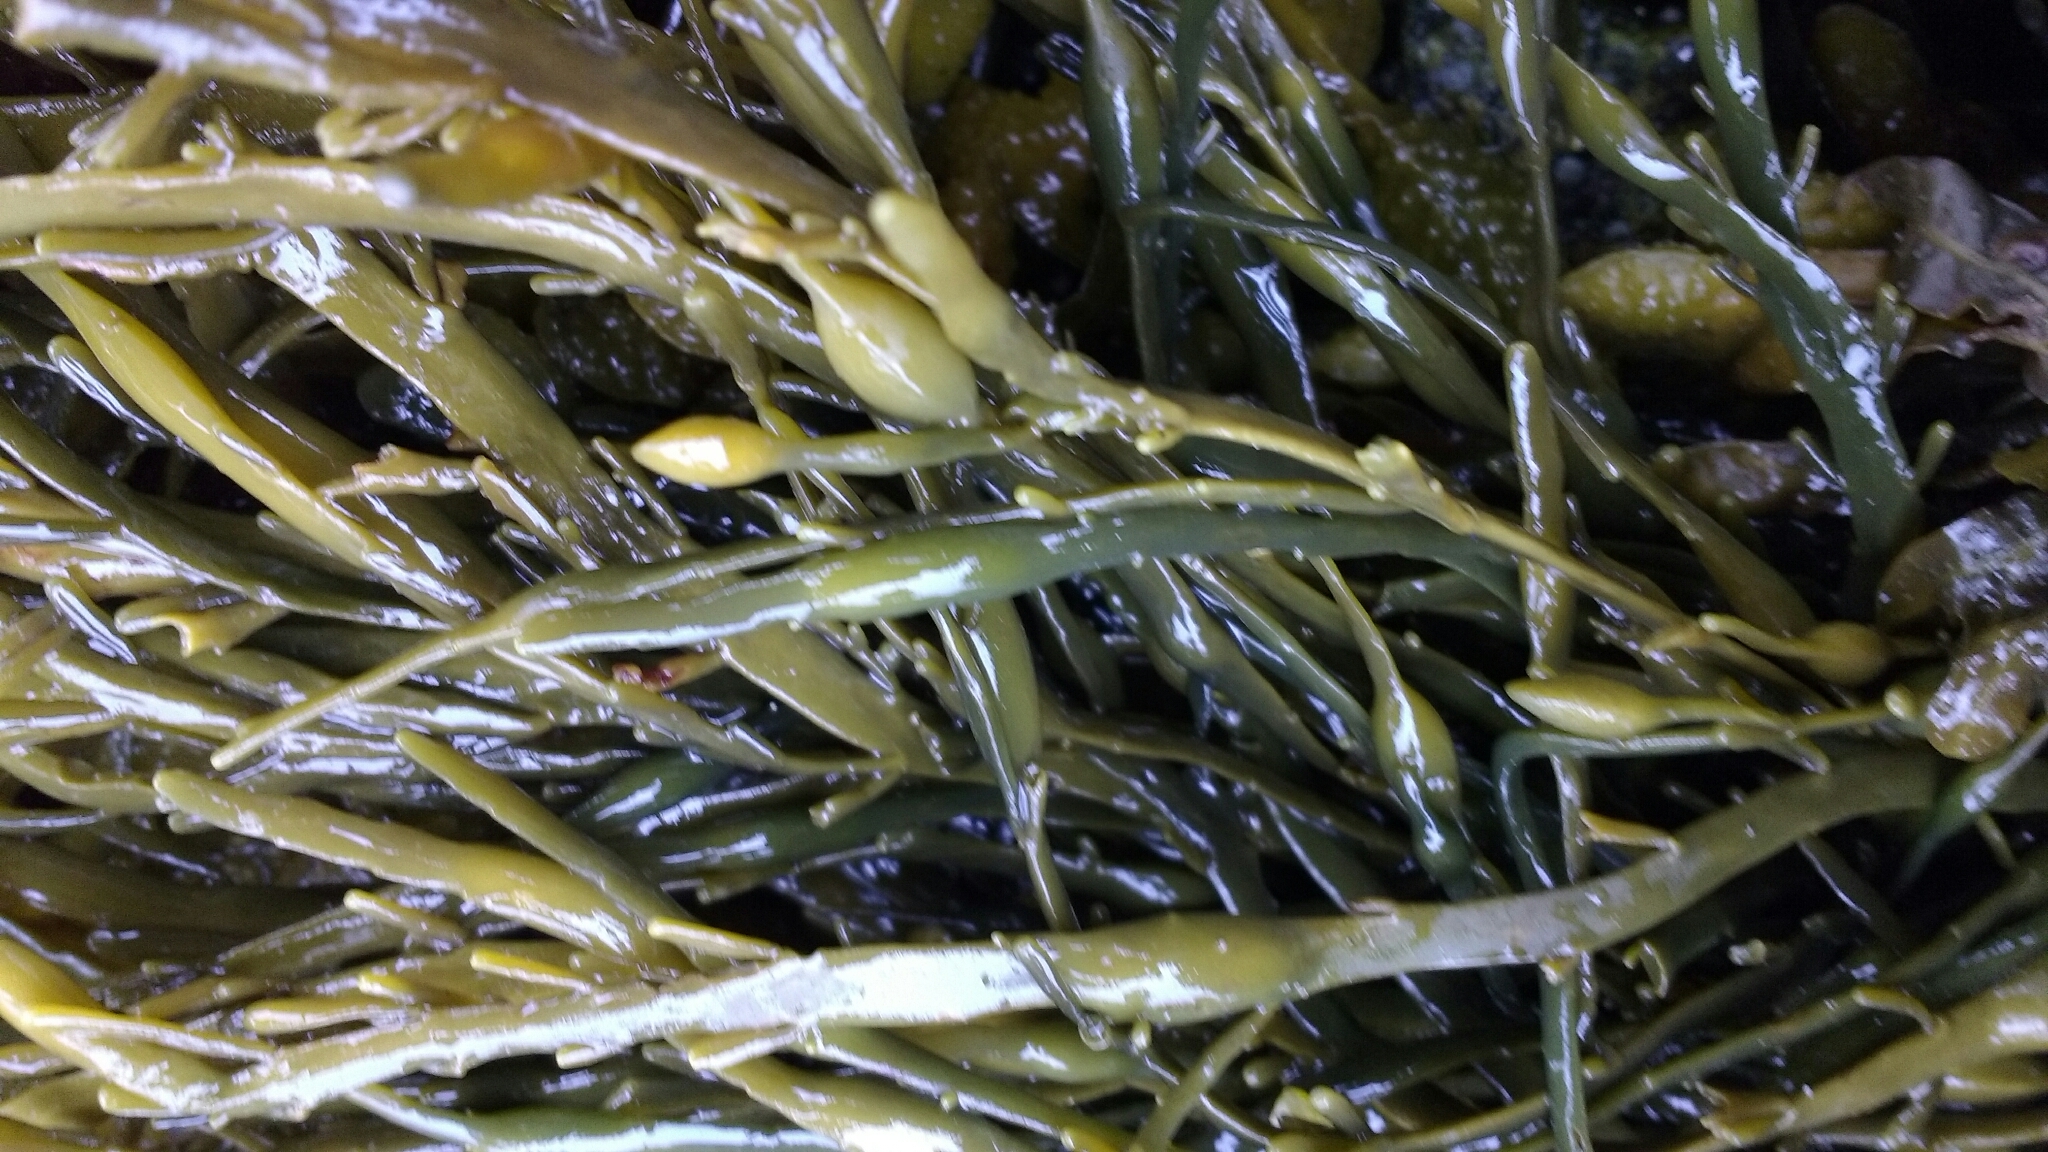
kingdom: Chromista
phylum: Ochrophyta
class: Phaeophyceae
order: Fucales
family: Fucaceae
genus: Ascophyllum
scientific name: Ascophyllum nodosum
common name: Knotted wrack
